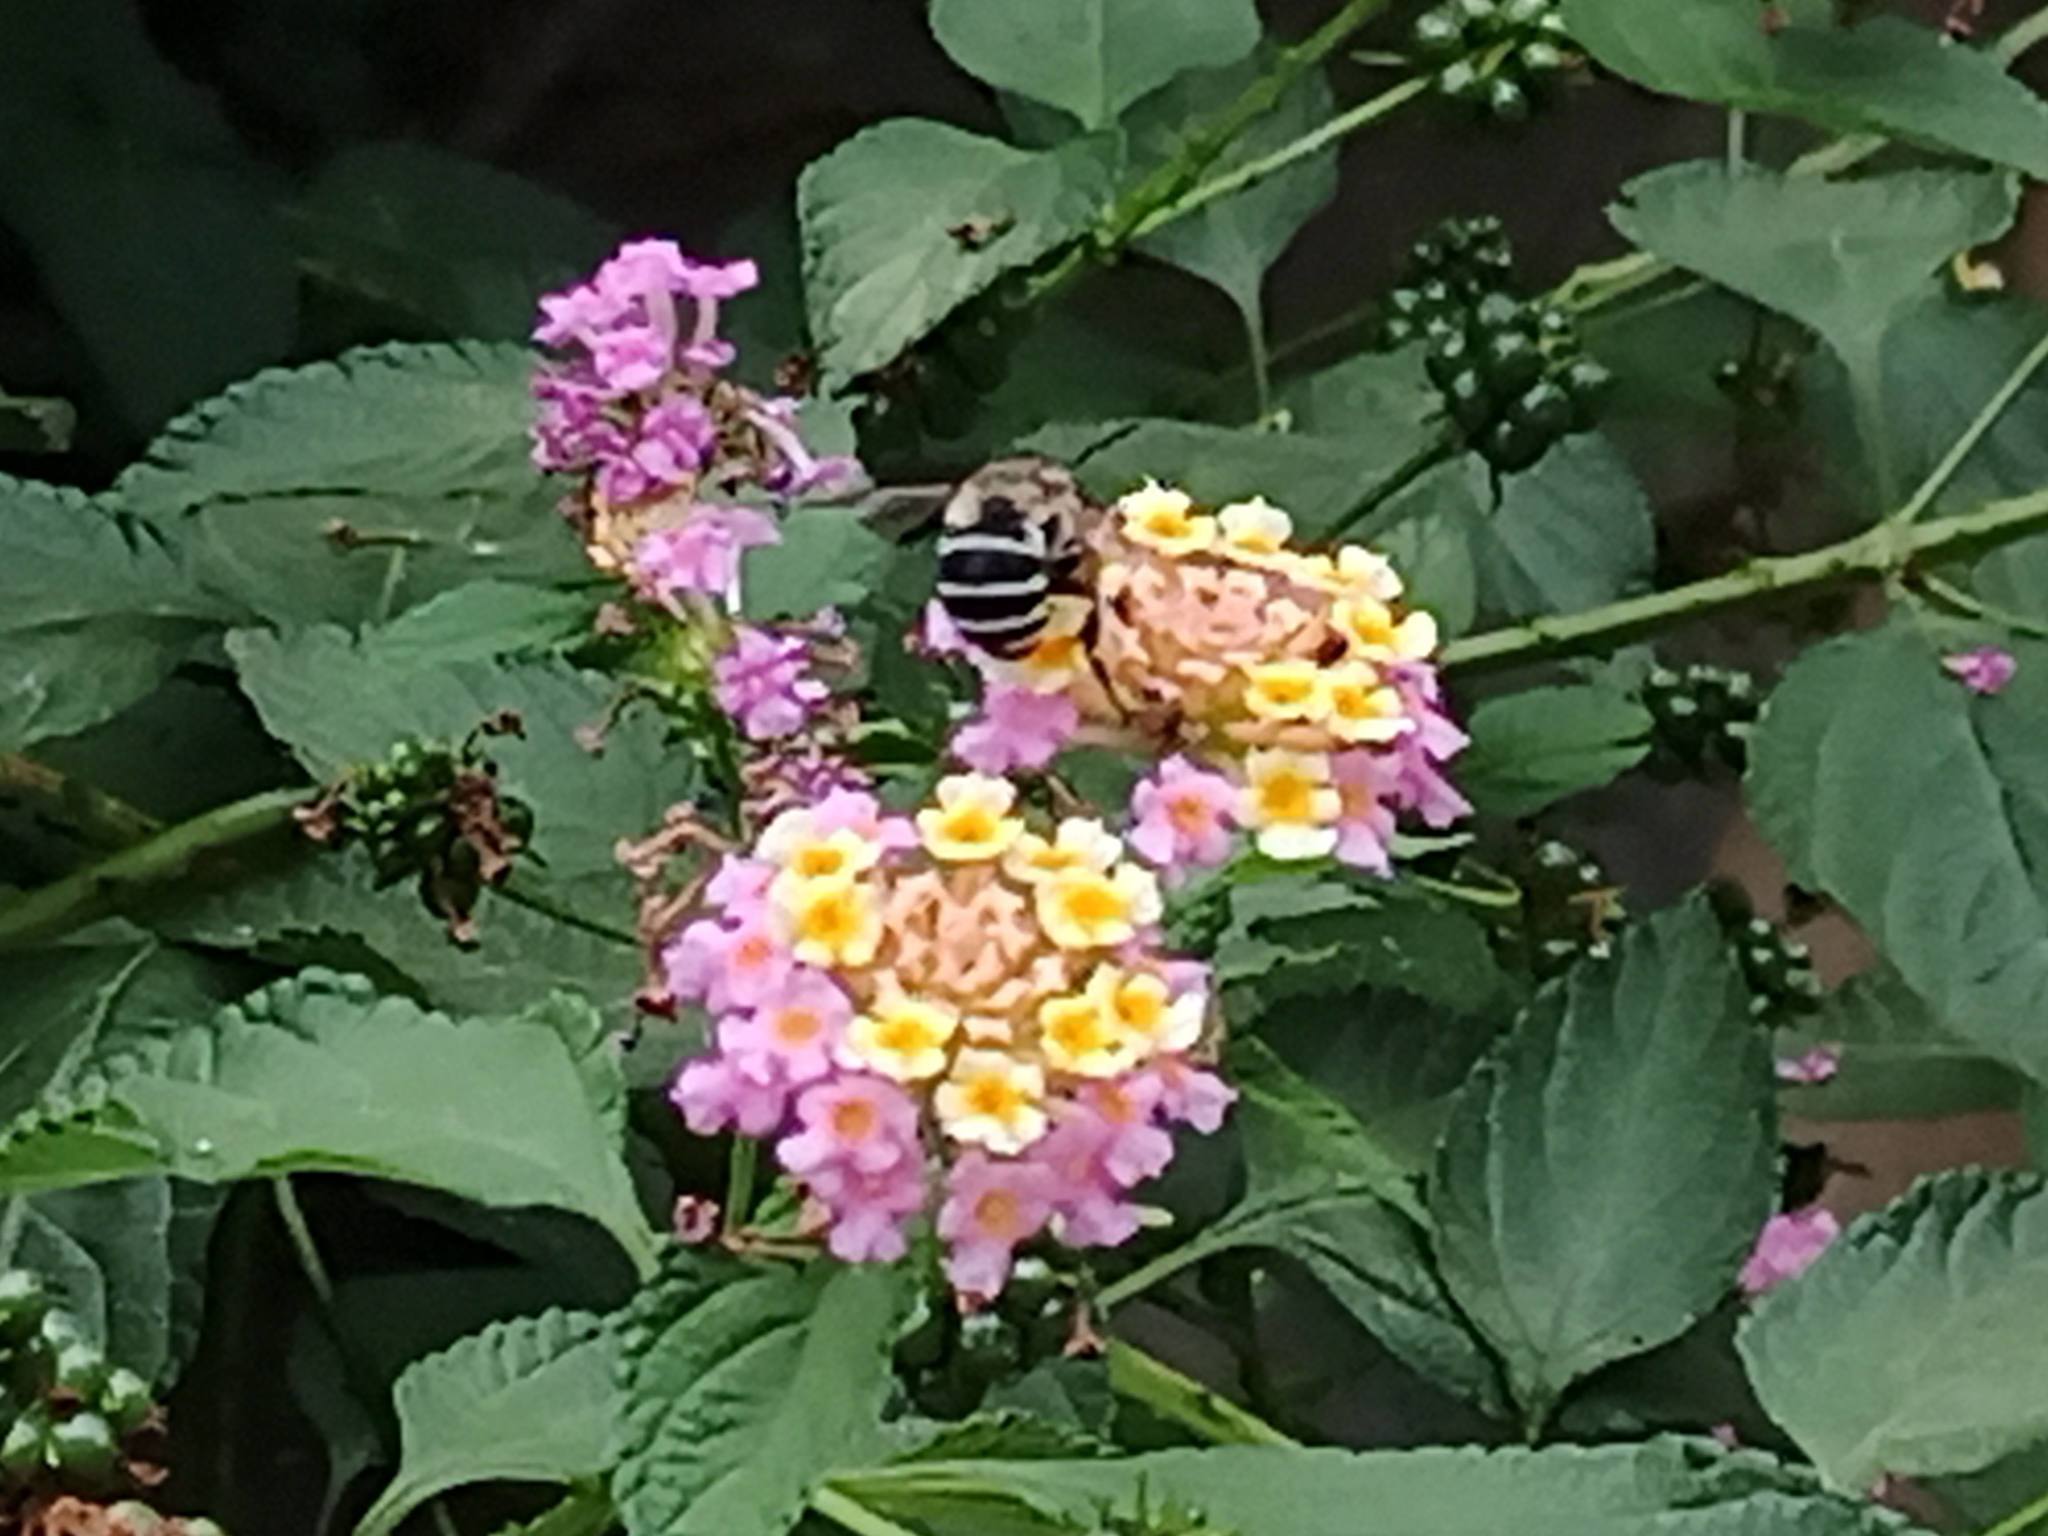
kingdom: Animalia
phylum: Arthropoda
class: Insecta
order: Hymenoptera
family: Apidae
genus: Amegilla
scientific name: Amegilla canifrons
